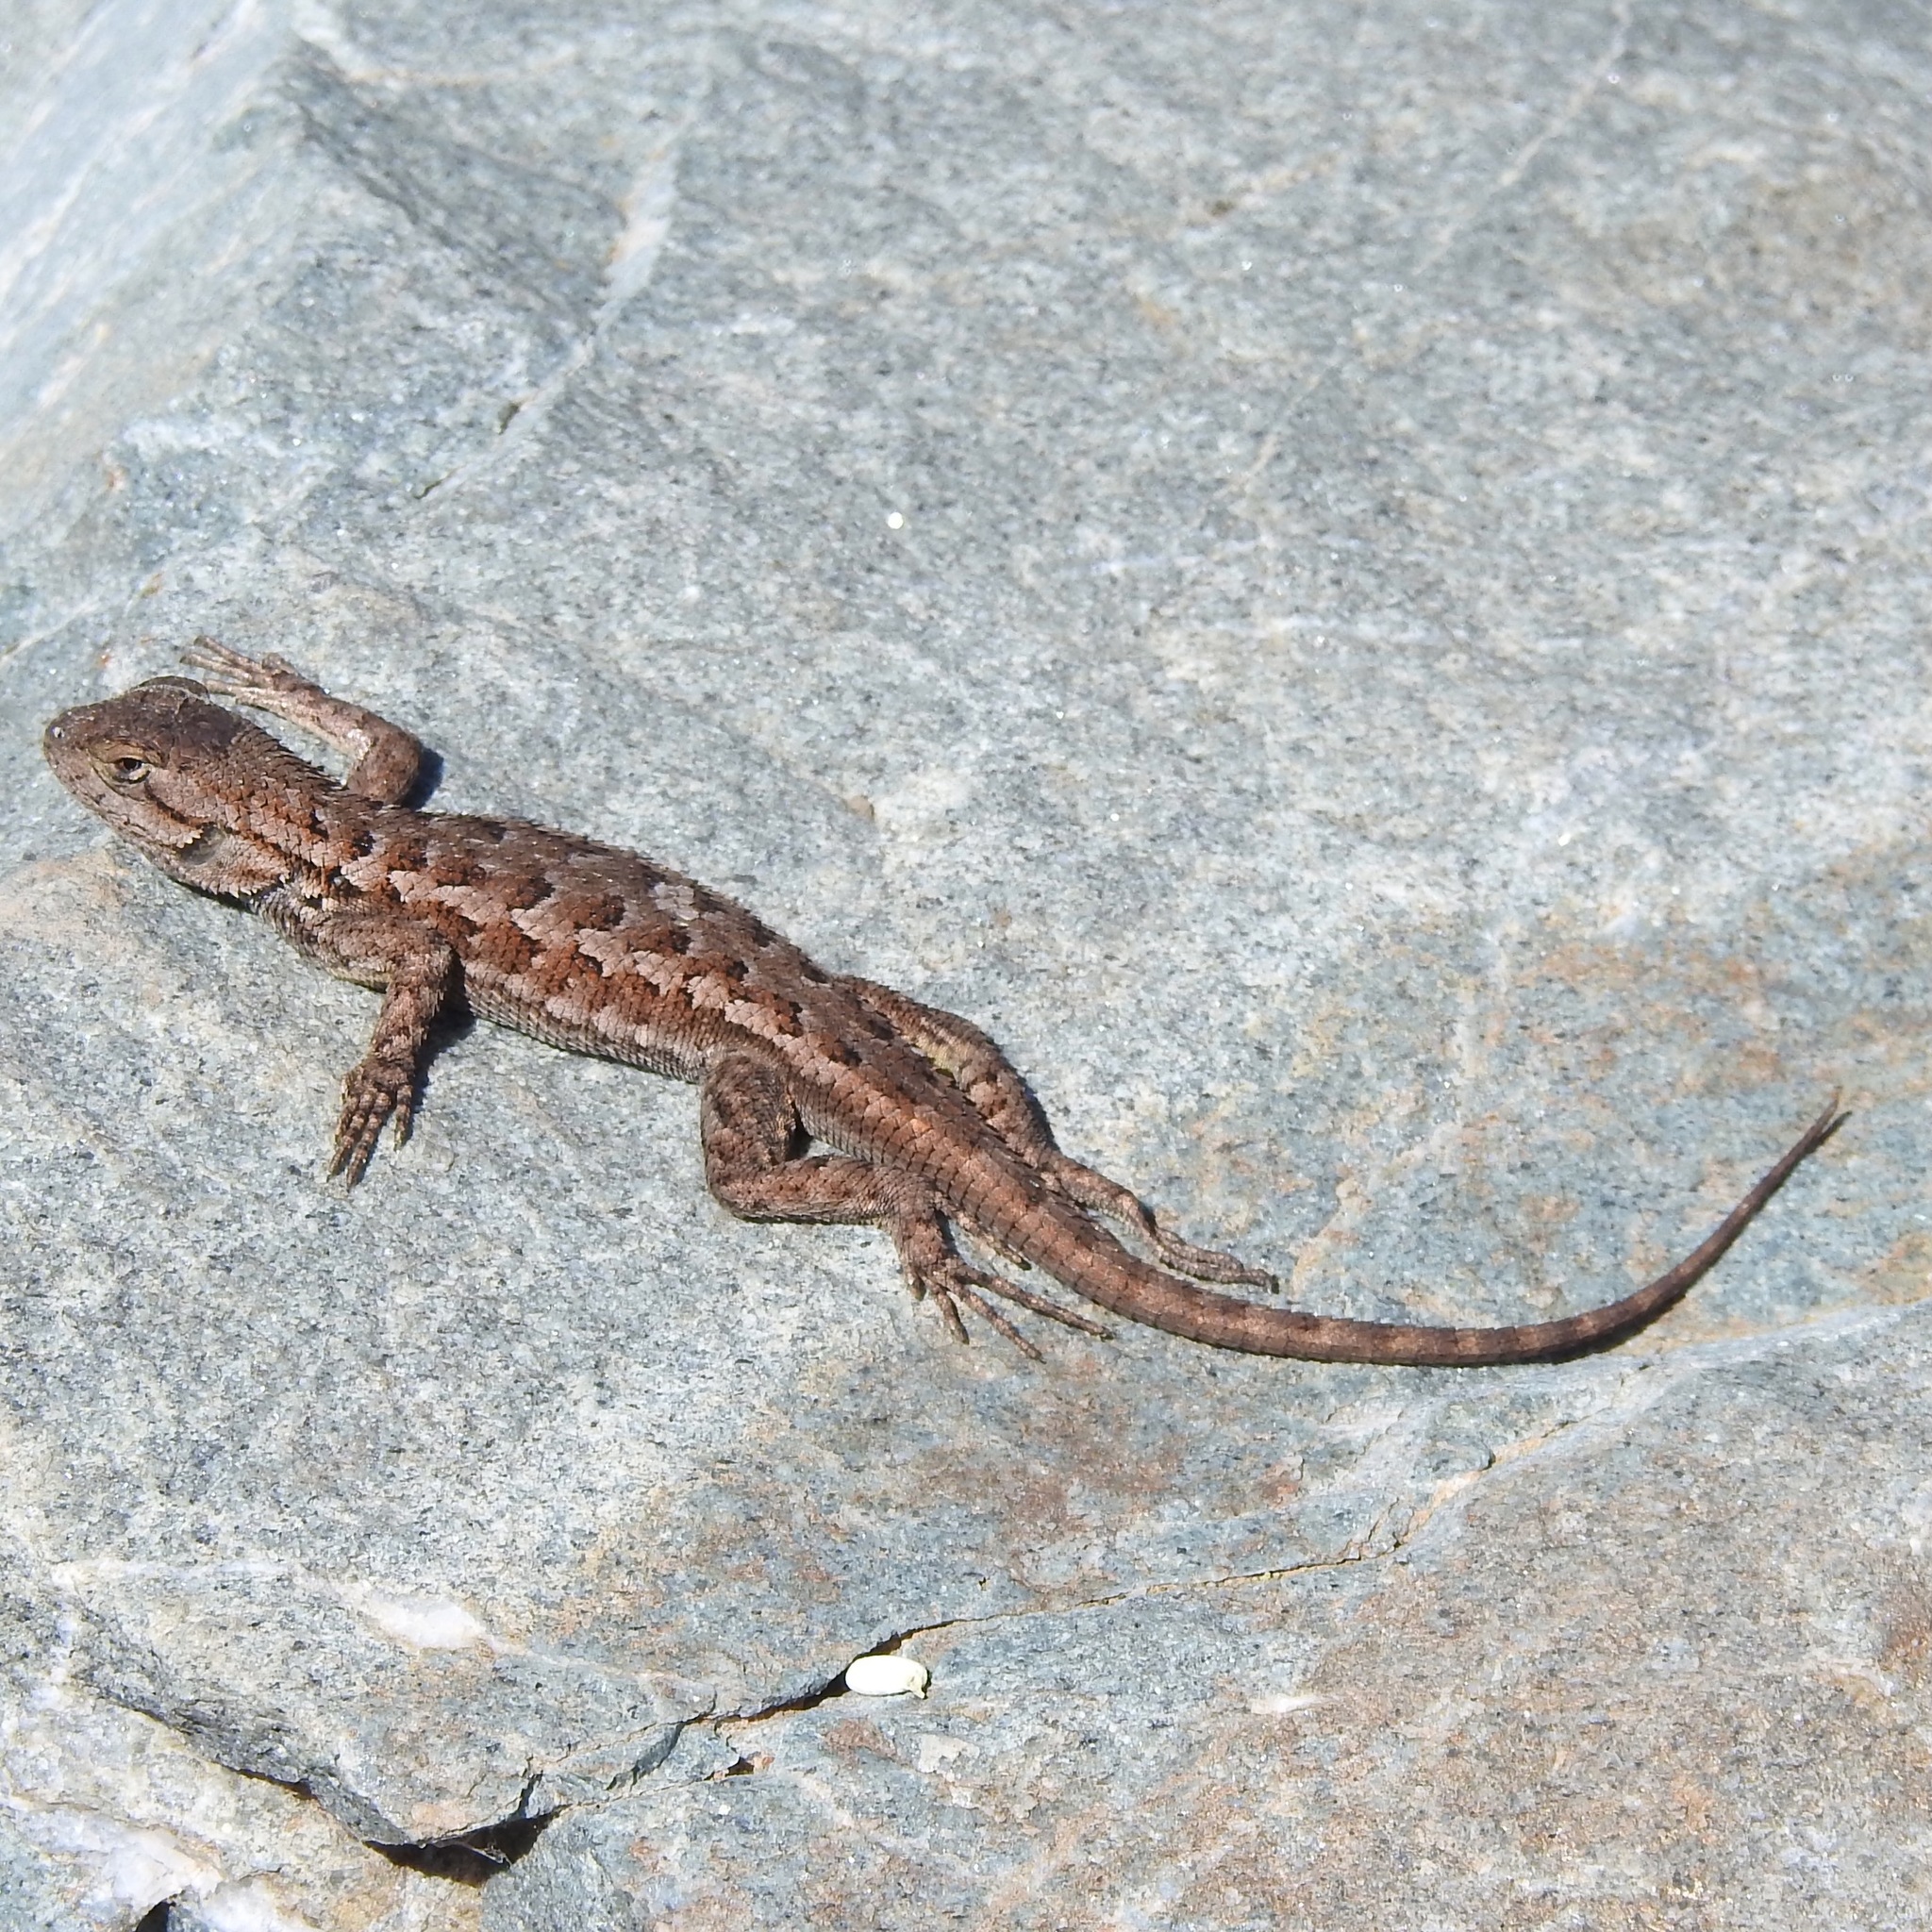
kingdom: Animalia
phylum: Chordata
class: Squamata
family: Phrynosomatidae
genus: Sceloporus
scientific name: Sceloporus occidentalis
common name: Western fence lizard
